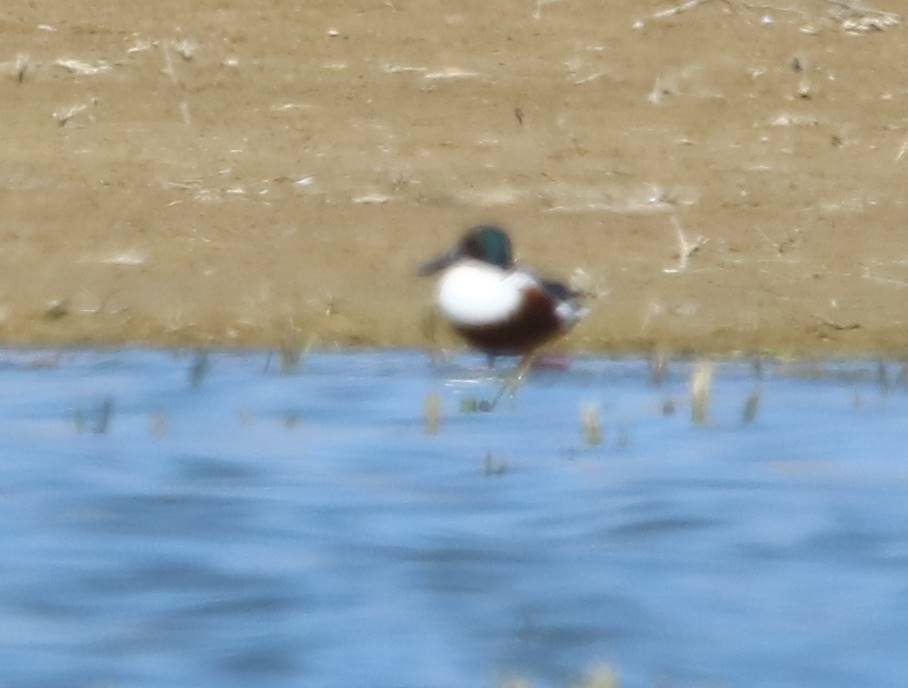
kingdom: Animalia
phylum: Chordata
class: Aves
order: Anseriformes
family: Anatidae
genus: Spatula
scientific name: Spatula clypeata
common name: Northern shoveler
